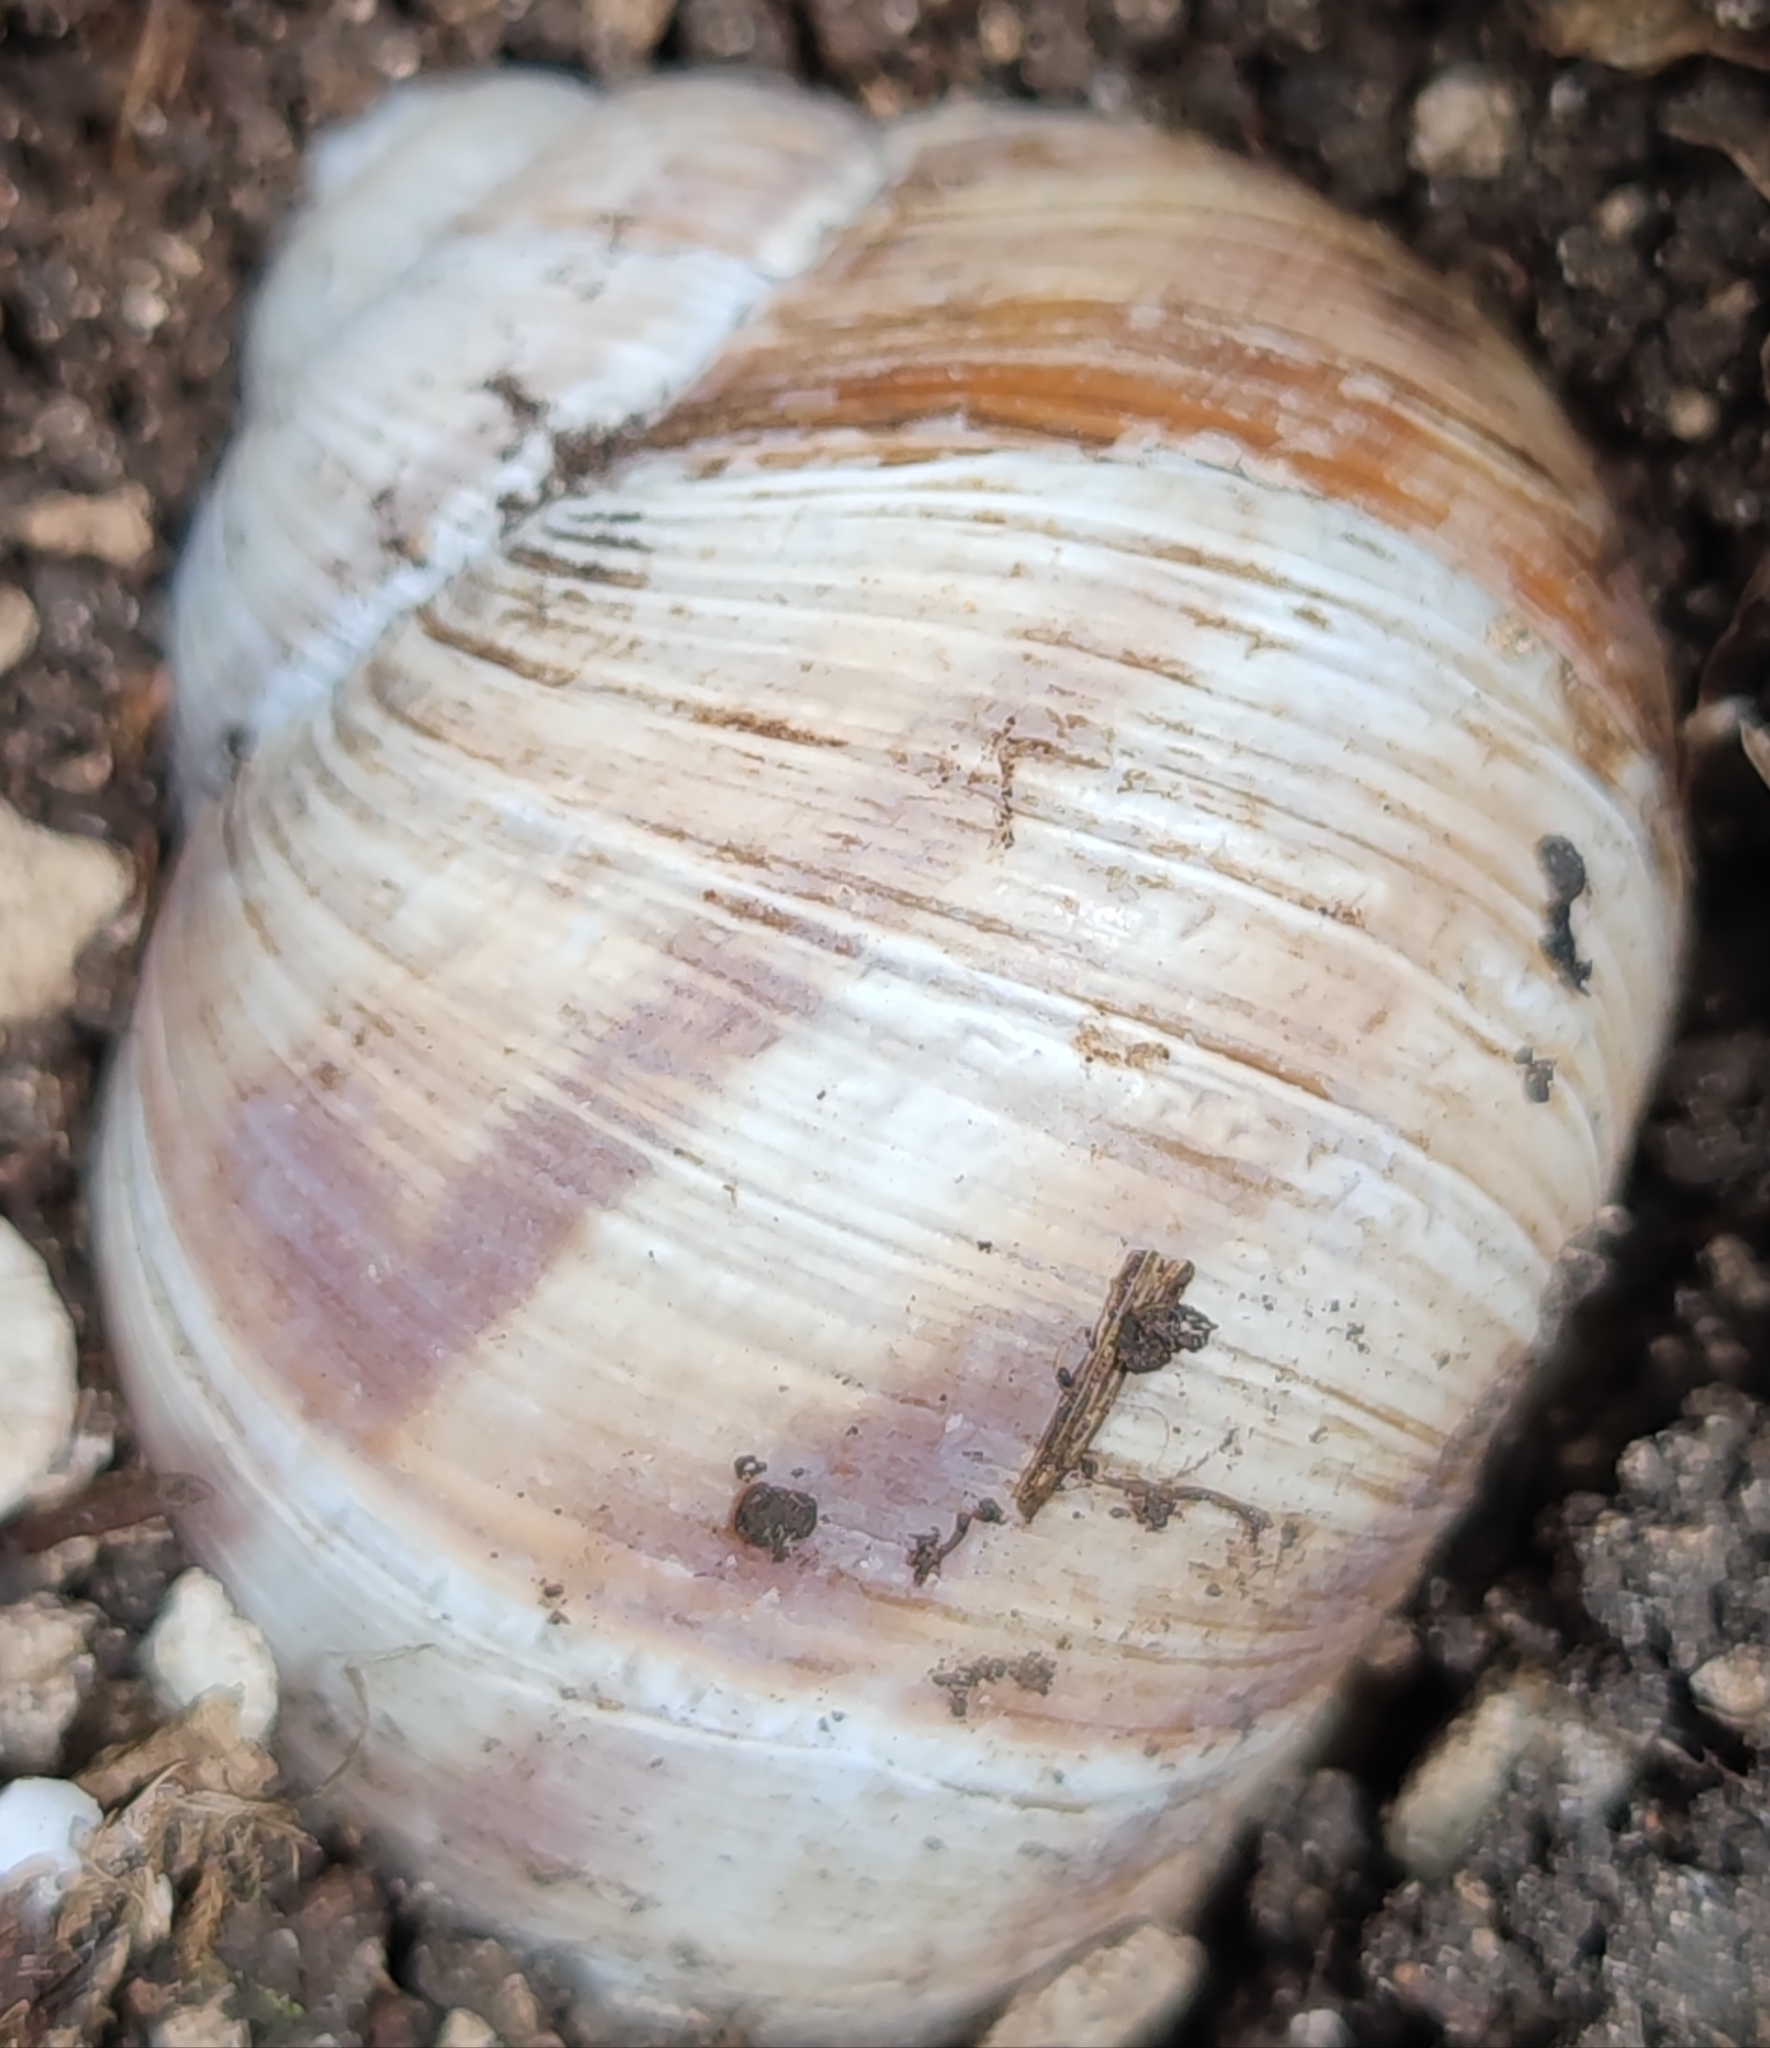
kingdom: Animalia
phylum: Mollusca
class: Gastropoda
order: Stylommatophora
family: Helicidae
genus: Helix
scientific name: Helix pomatia
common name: Roman snail
